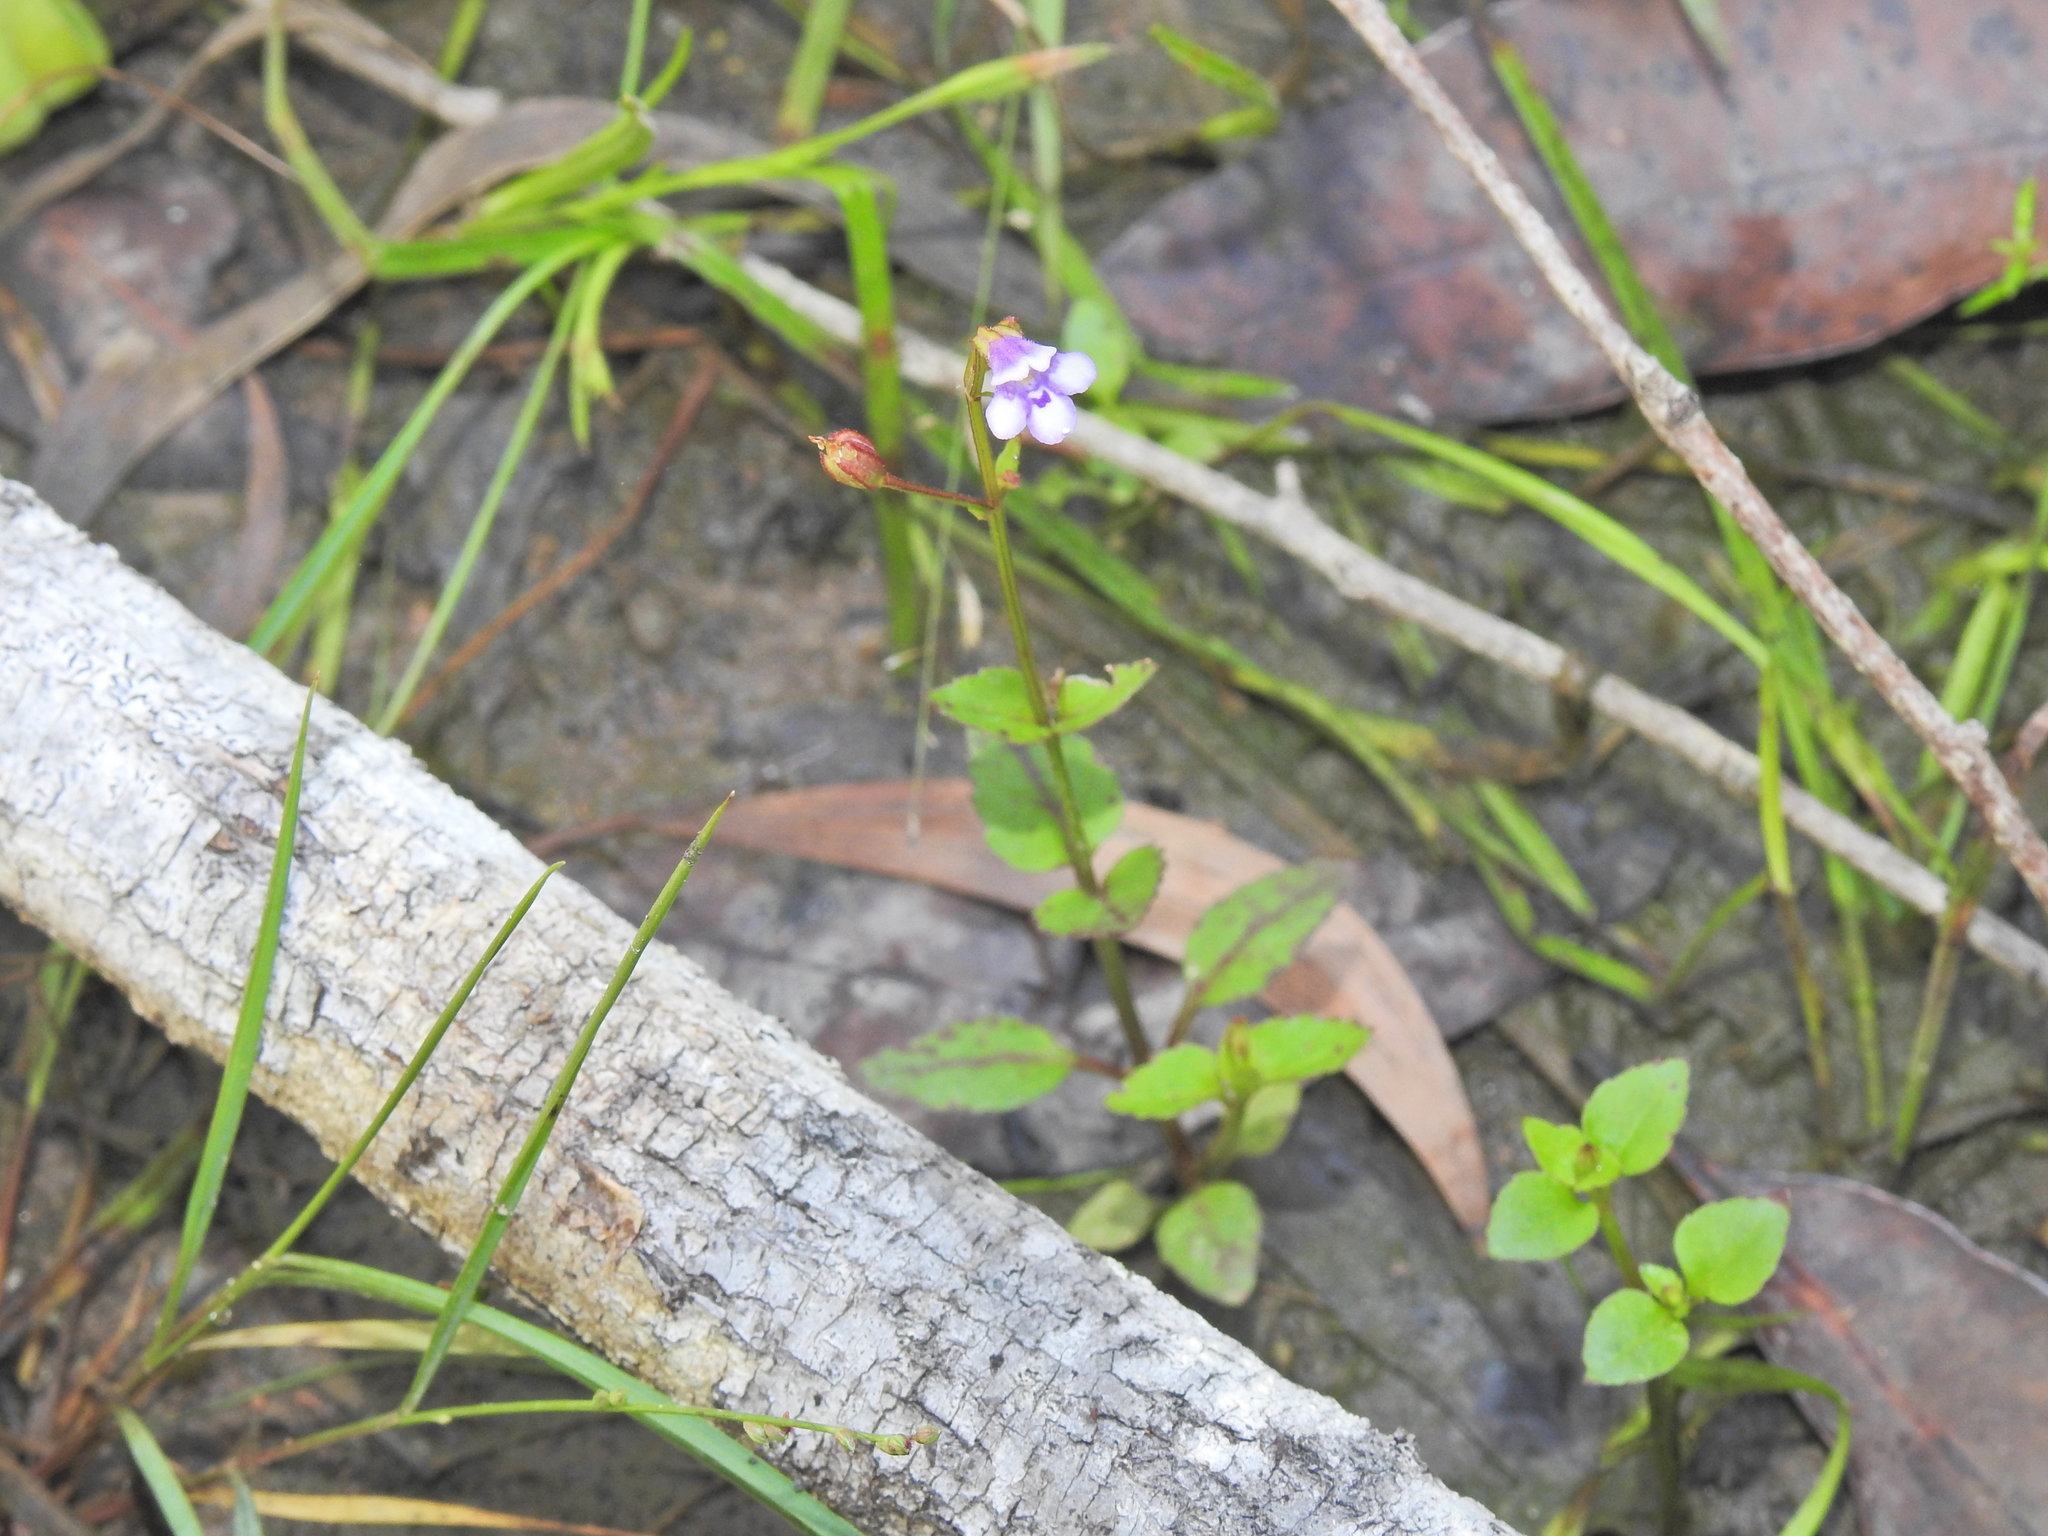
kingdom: Plantae
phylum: Tracheophyta
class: Magnoliopsida
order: Lamiales
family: Linderniaceae
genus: Torenia
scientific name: Torenia crustacea
